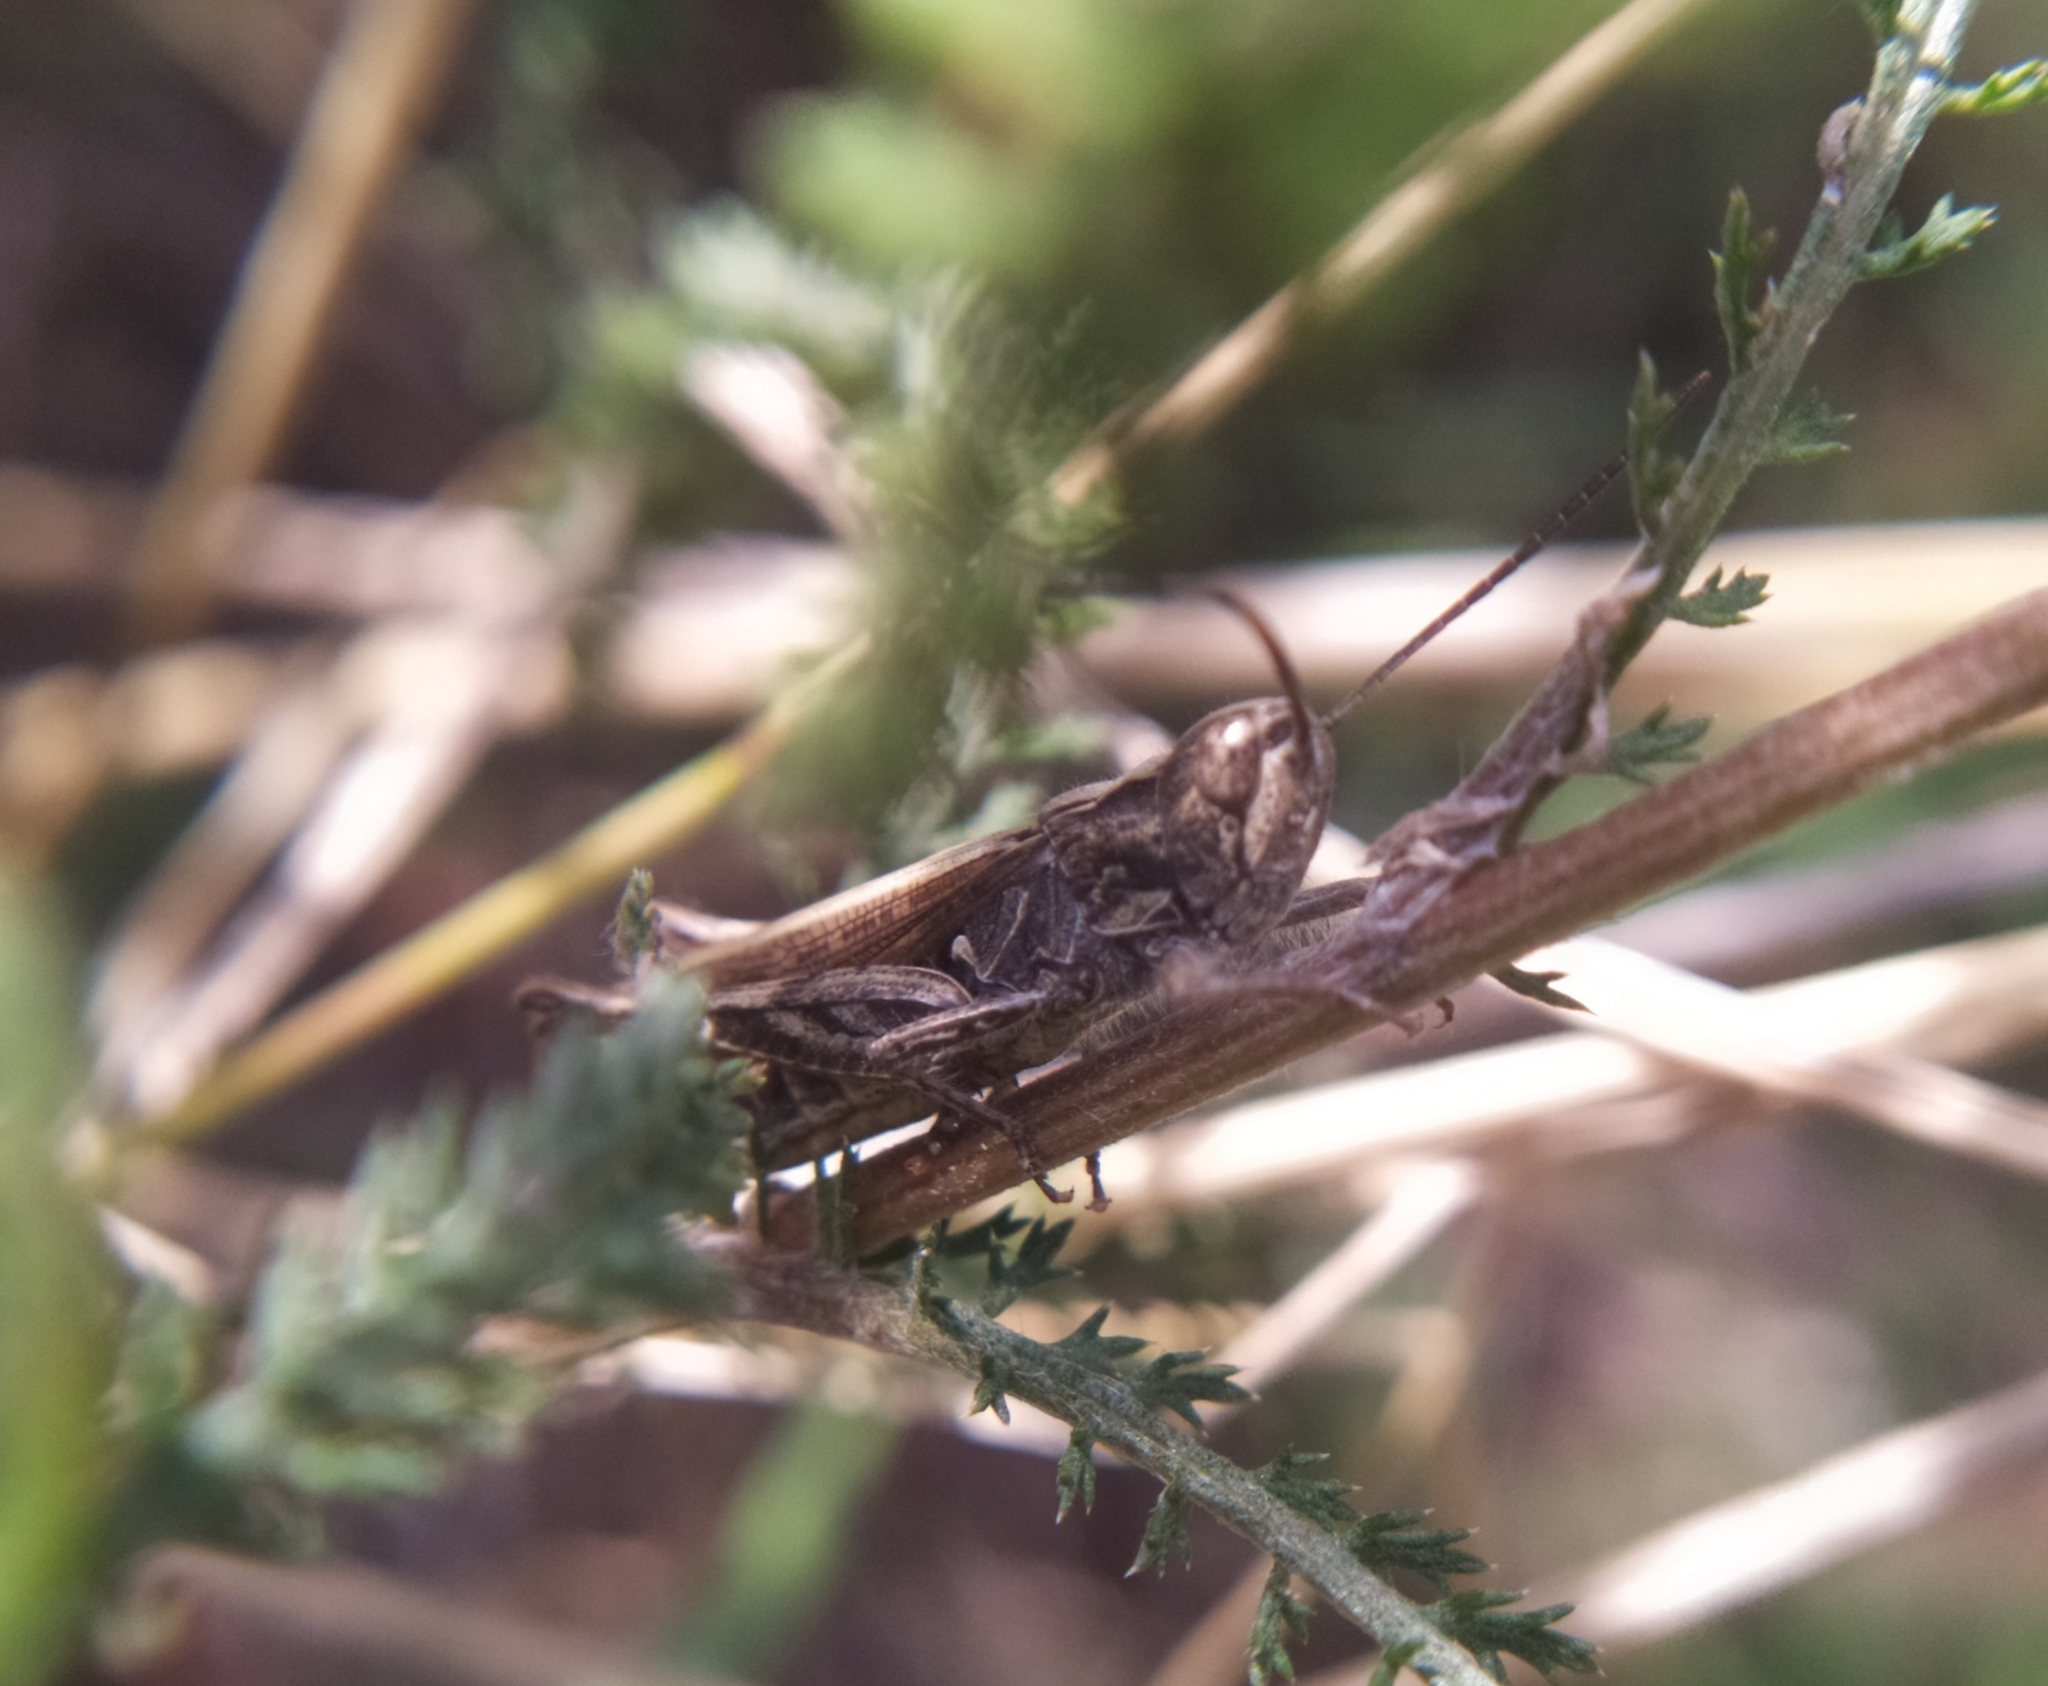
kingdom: Animalia
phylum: Arthropoda
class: Insecta
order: Orthoptera
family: Acrididae
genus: Chorthippus
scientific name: Chorthippus mollis
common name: Lesser field grasshopper
